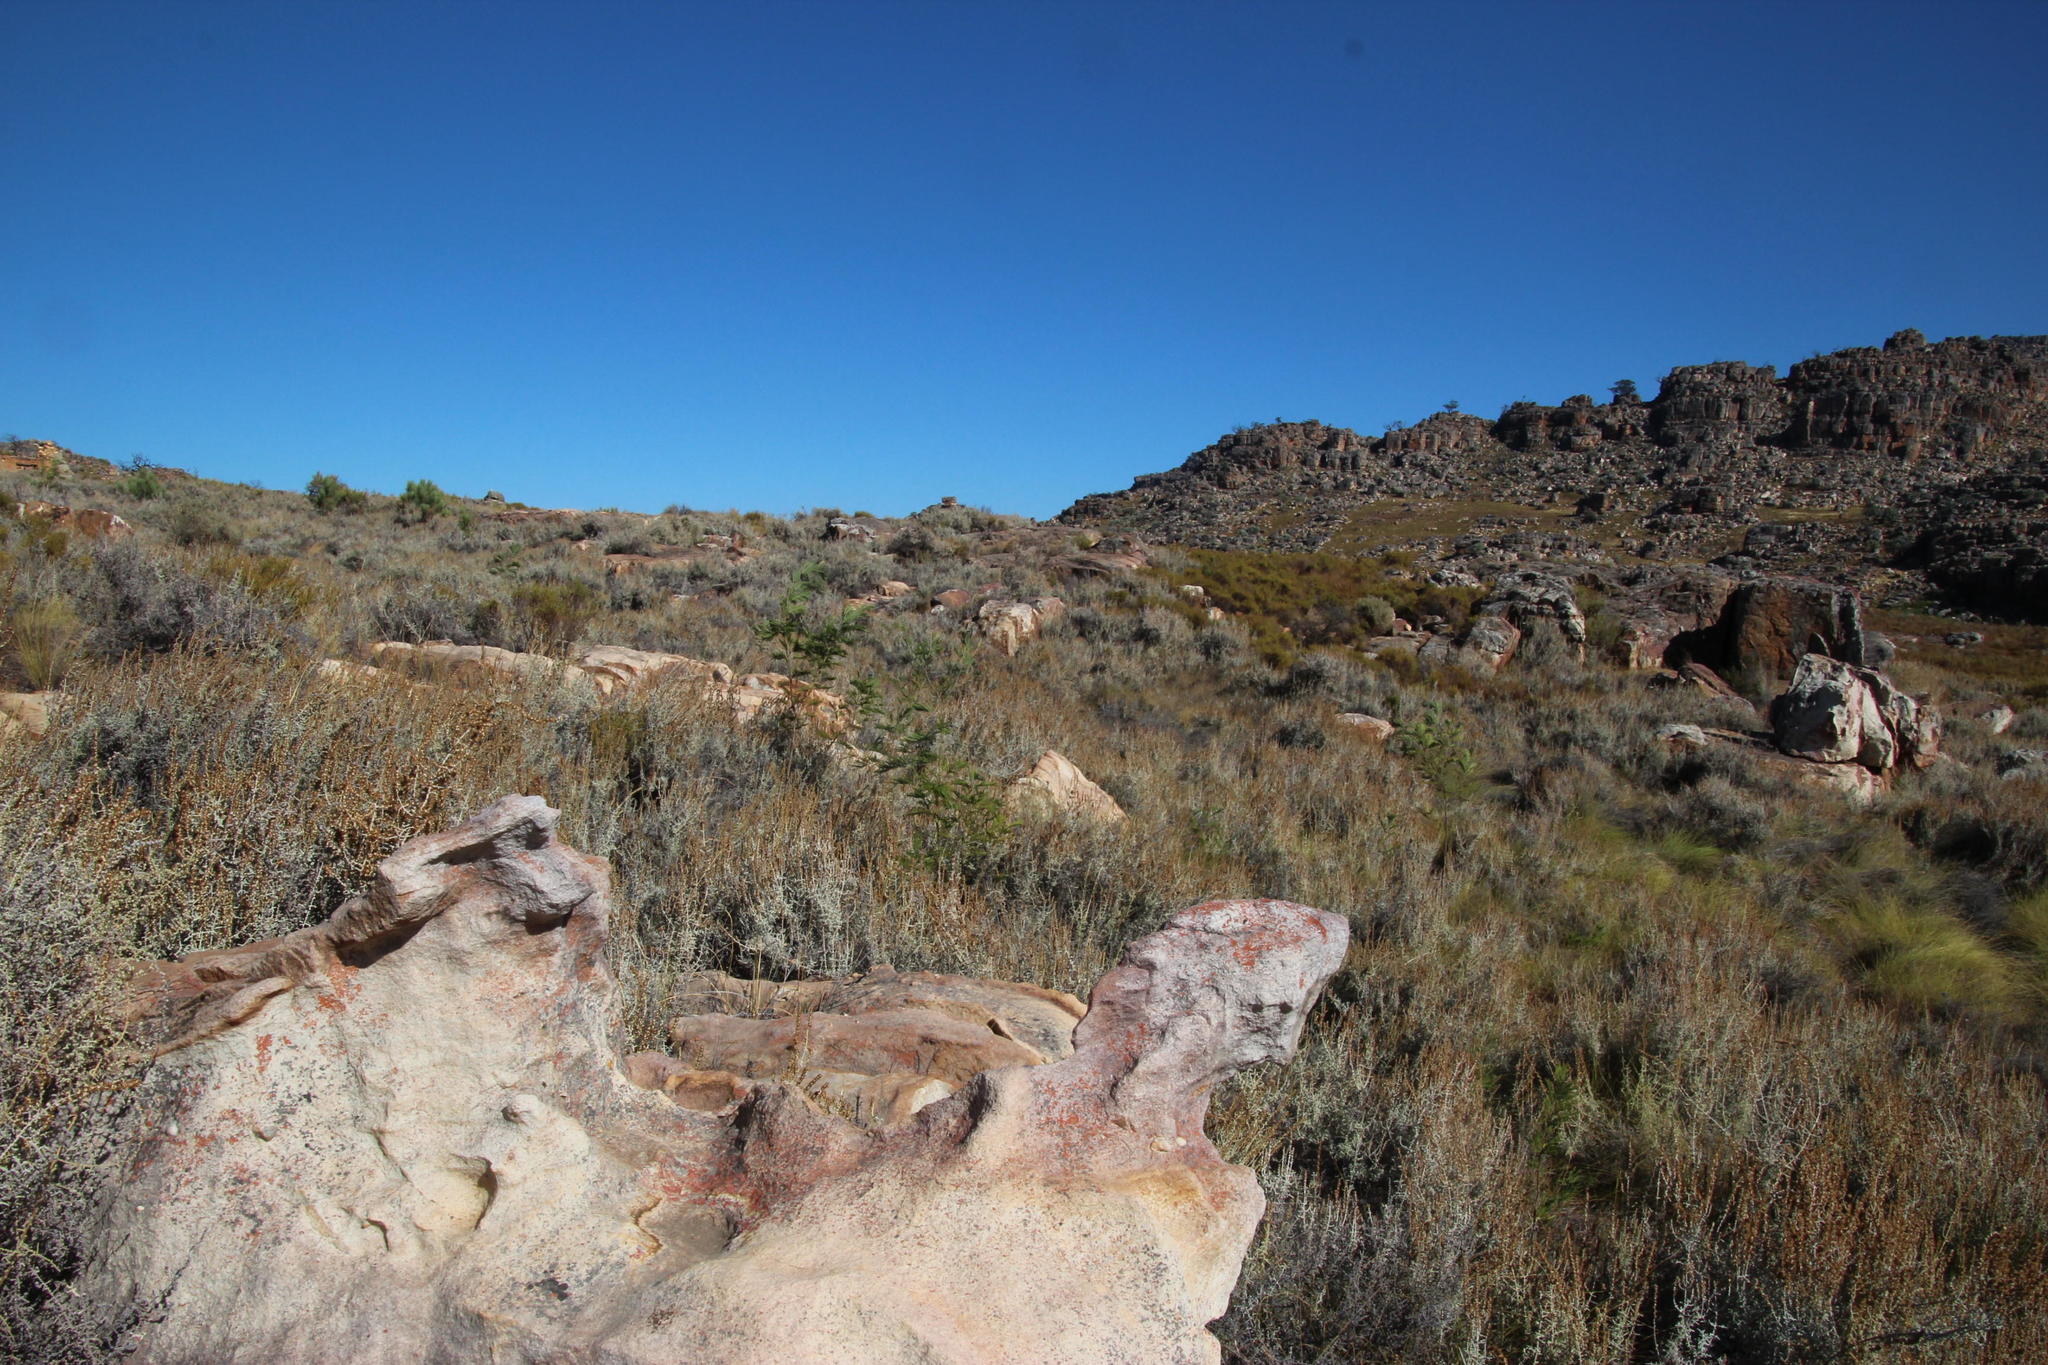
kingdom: Plantae
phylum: Tracheophyta
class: Magnoliopsida
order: Fabales
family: Fabaceae
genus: Acacia
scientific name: Acacia mearnsii
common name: Black wattle
